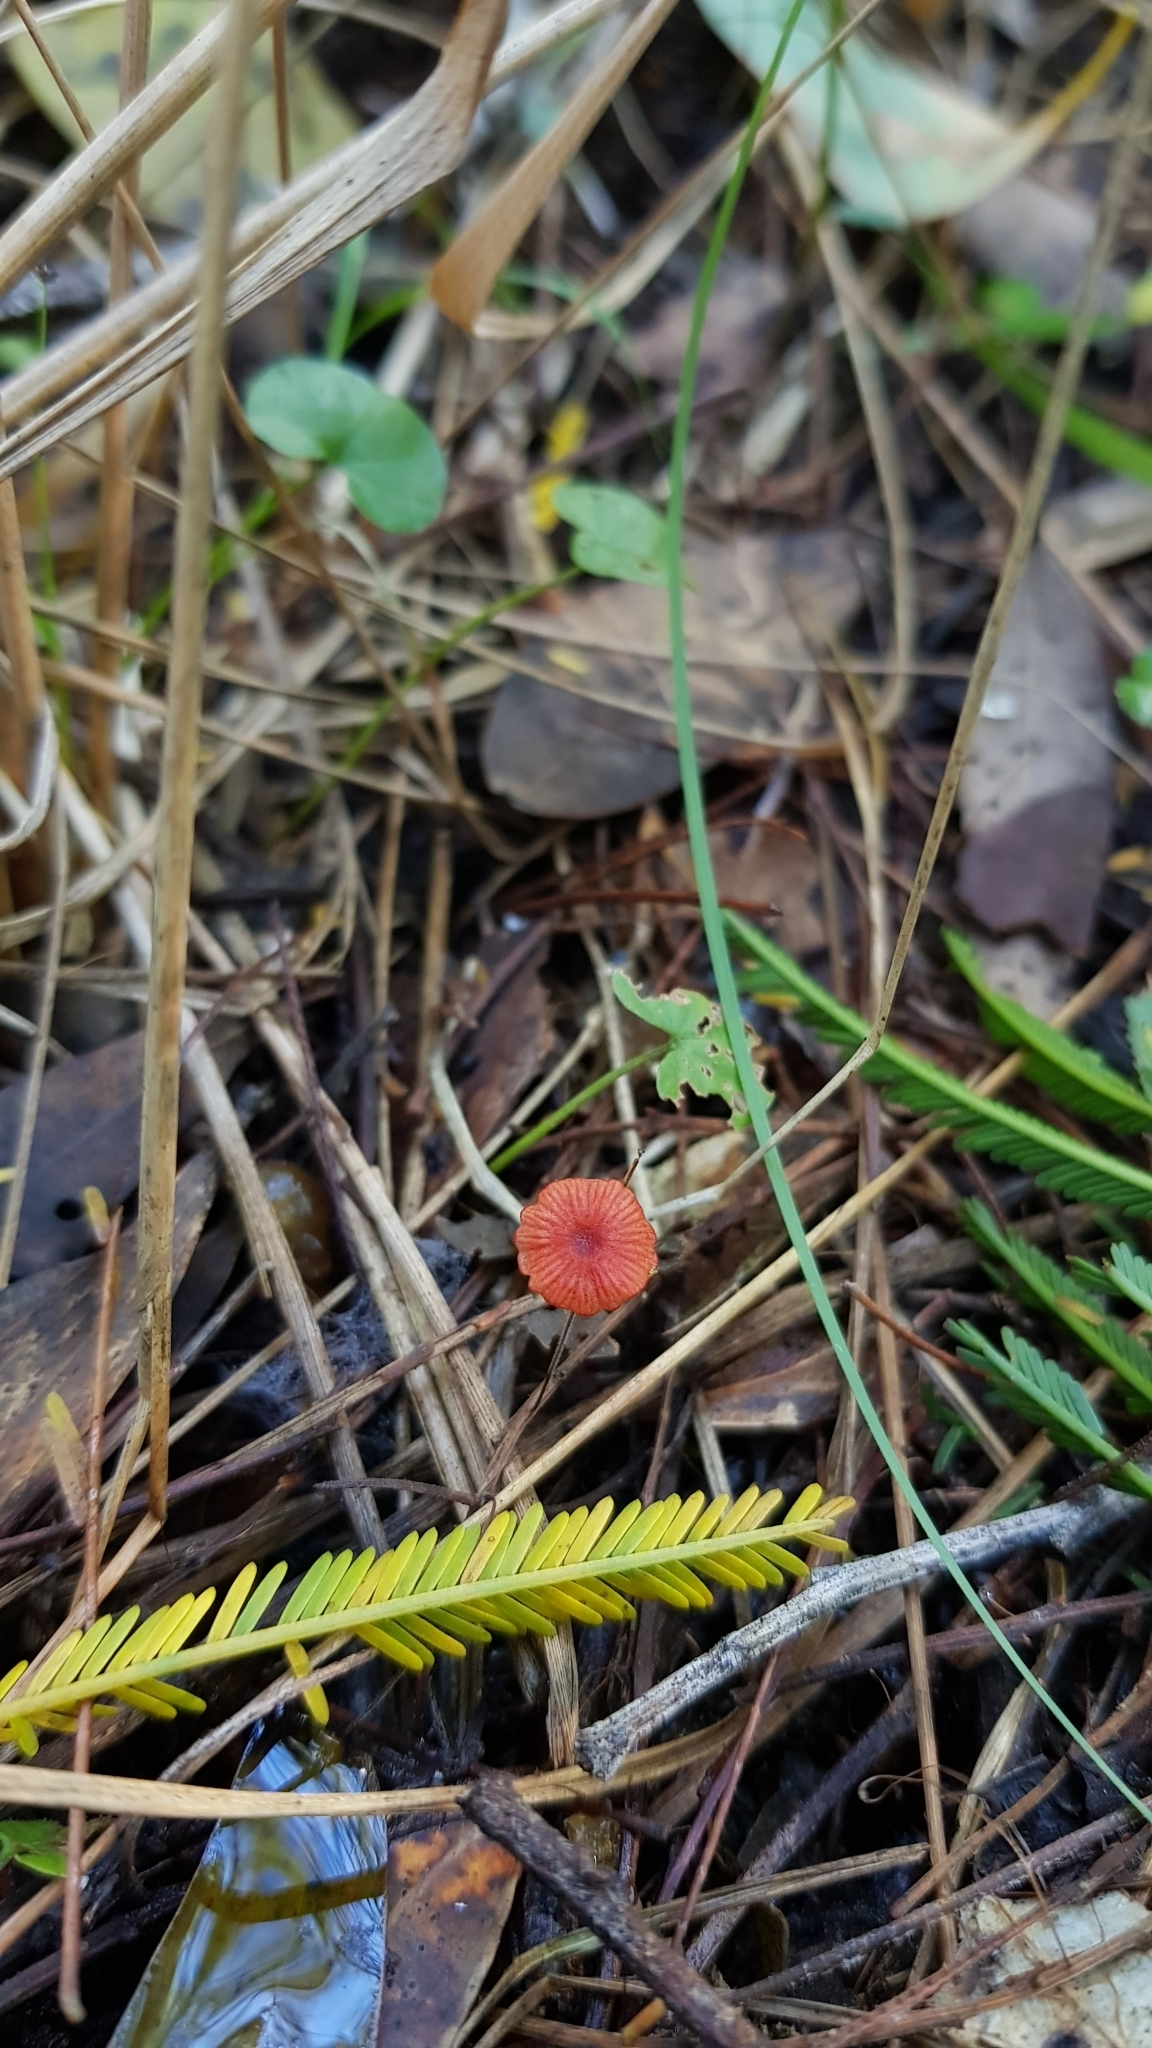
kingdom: Fungi
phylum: Basidiomycota
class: Agaricomycetes
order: Agaricales
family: Mycenaceae
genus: Cruentomycena
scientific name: Cruentomycena viscidocruenta
